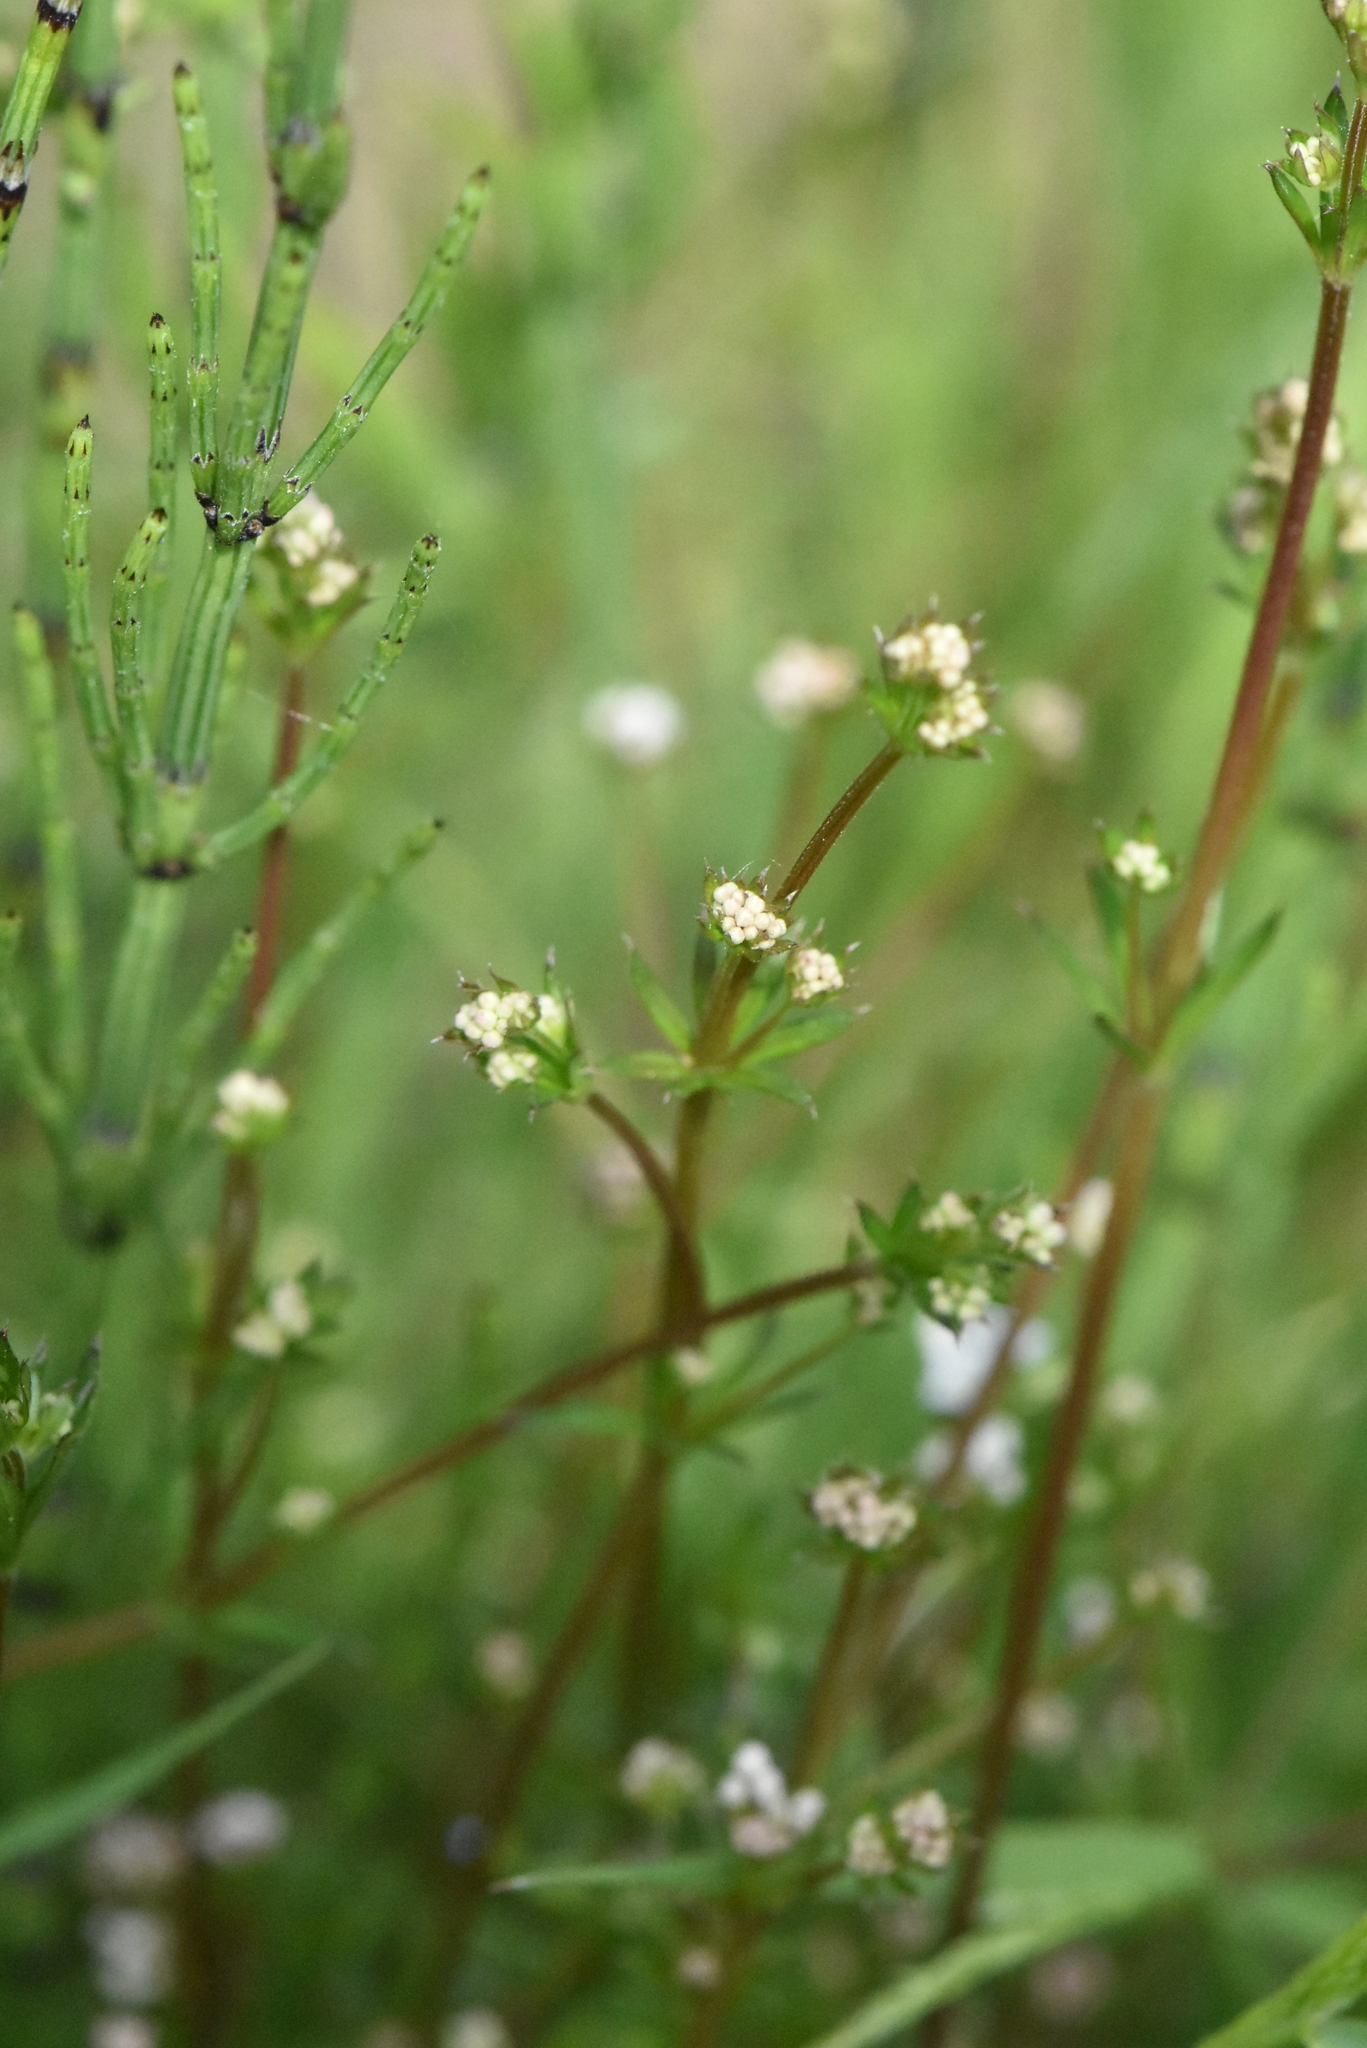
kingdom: Plantae
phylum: Tracheophyta
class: Magnoliopsida
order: Gentianales
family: Rubiaceae
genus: Galium
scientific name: Galium uliginosum
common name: Fen bedstraw
